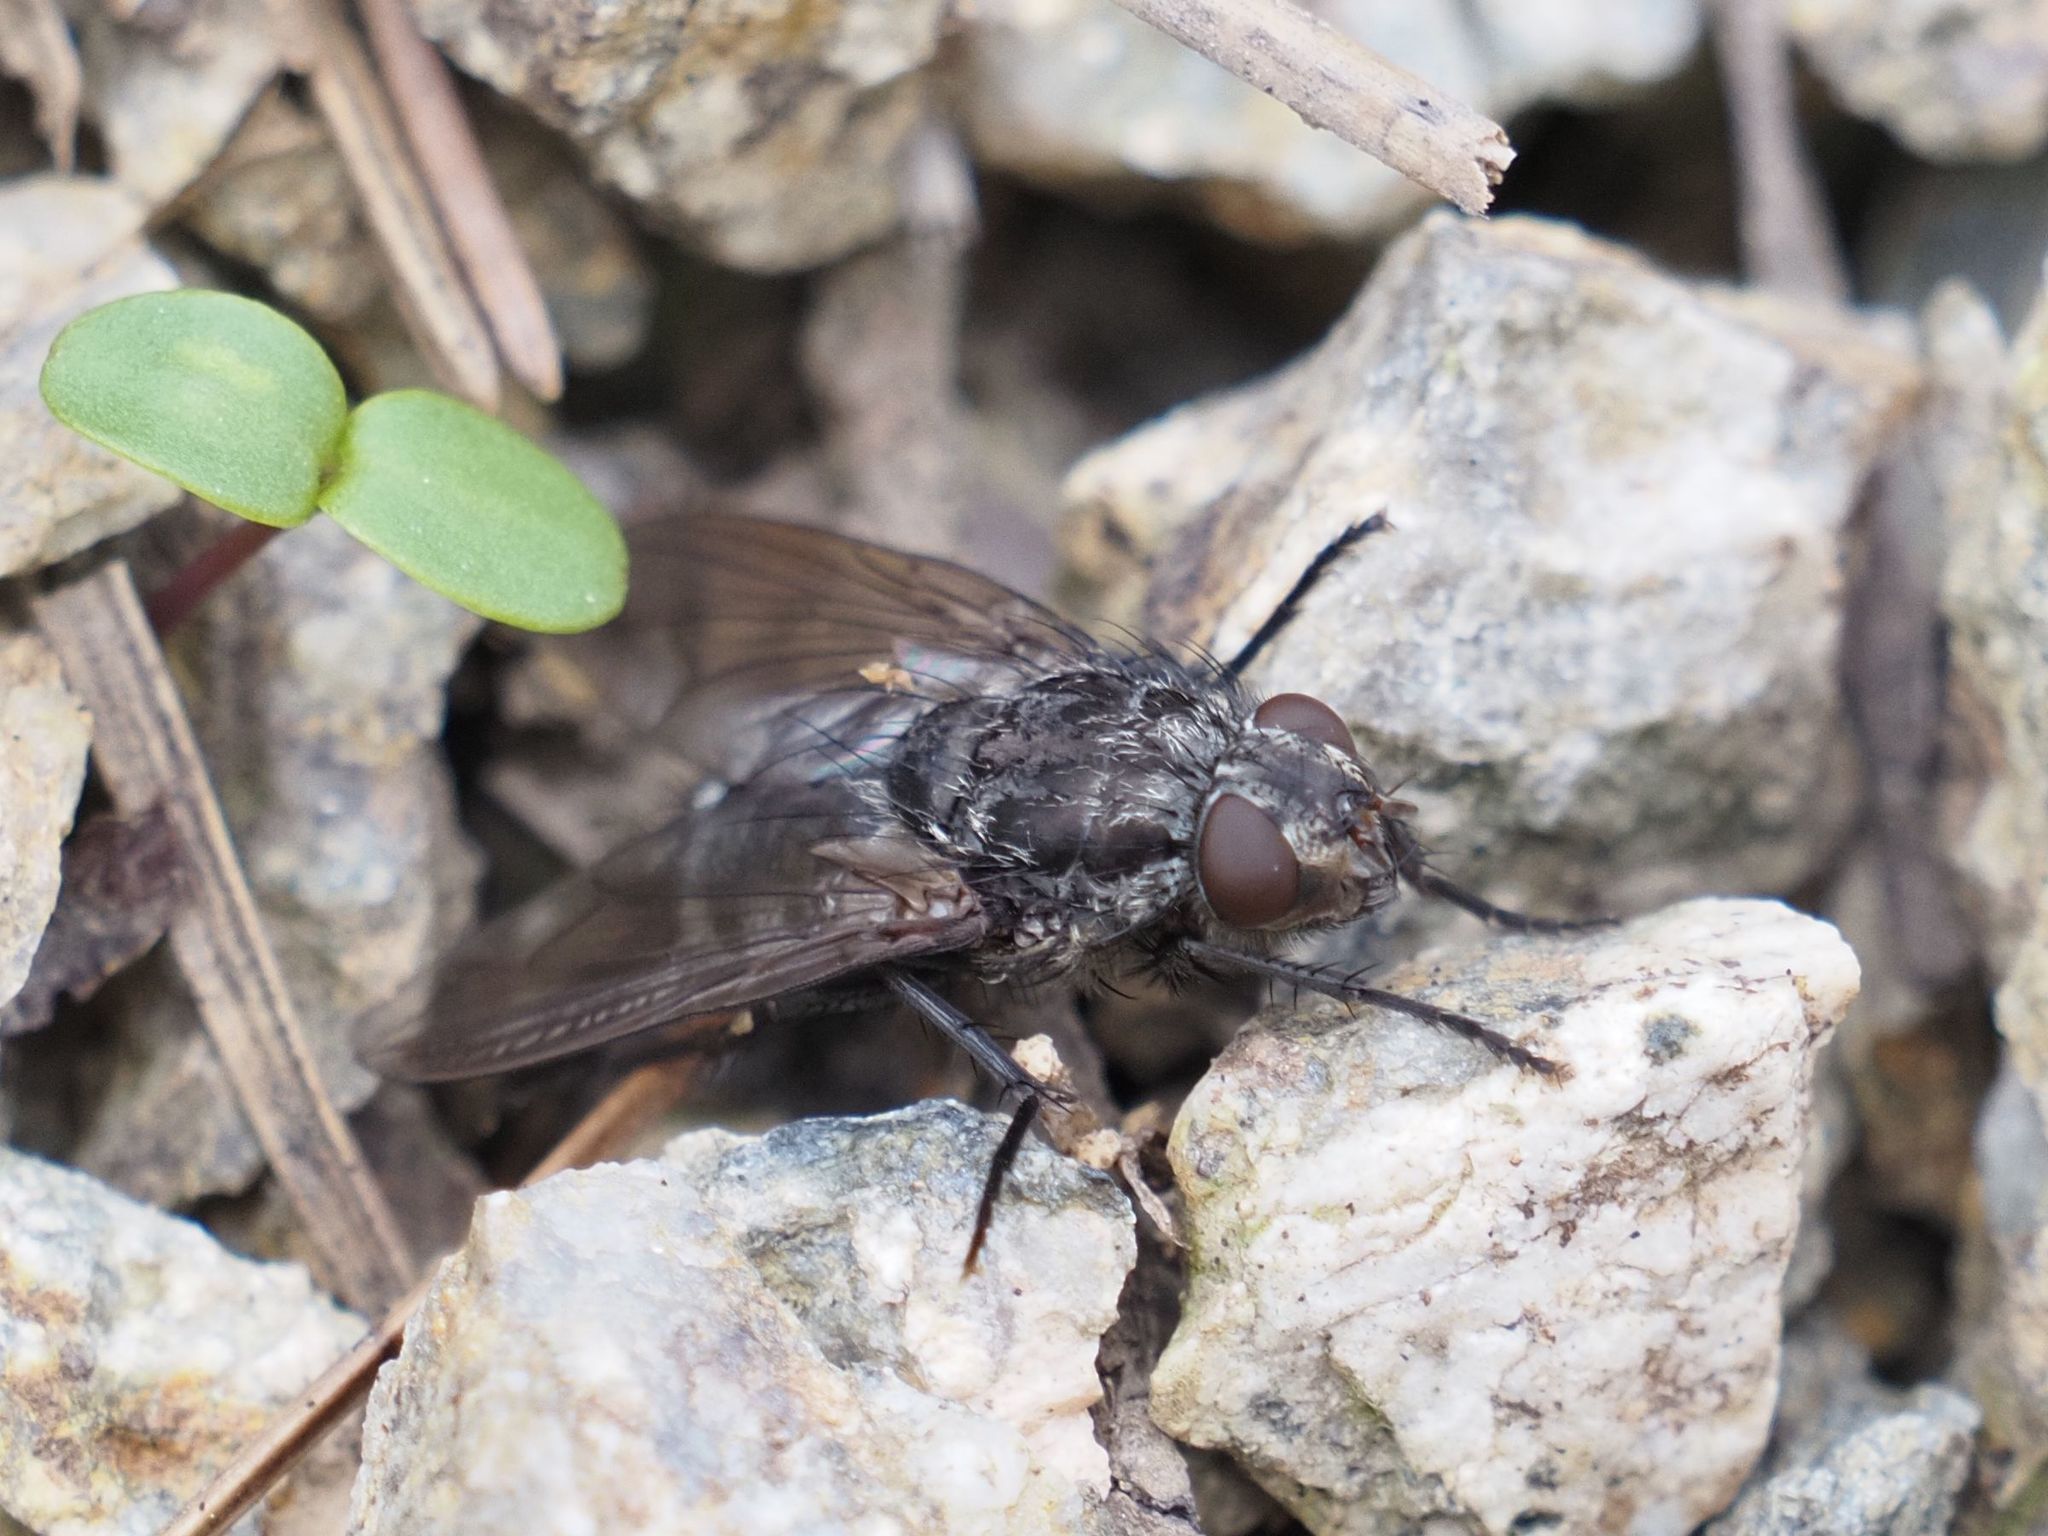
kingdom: Animalia
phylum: Arthropoda
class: Insecta
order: Diptera
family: Polleniidae
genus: Pollenia
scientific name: Pollenia vagabunda
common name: Vagabund cluster fly
